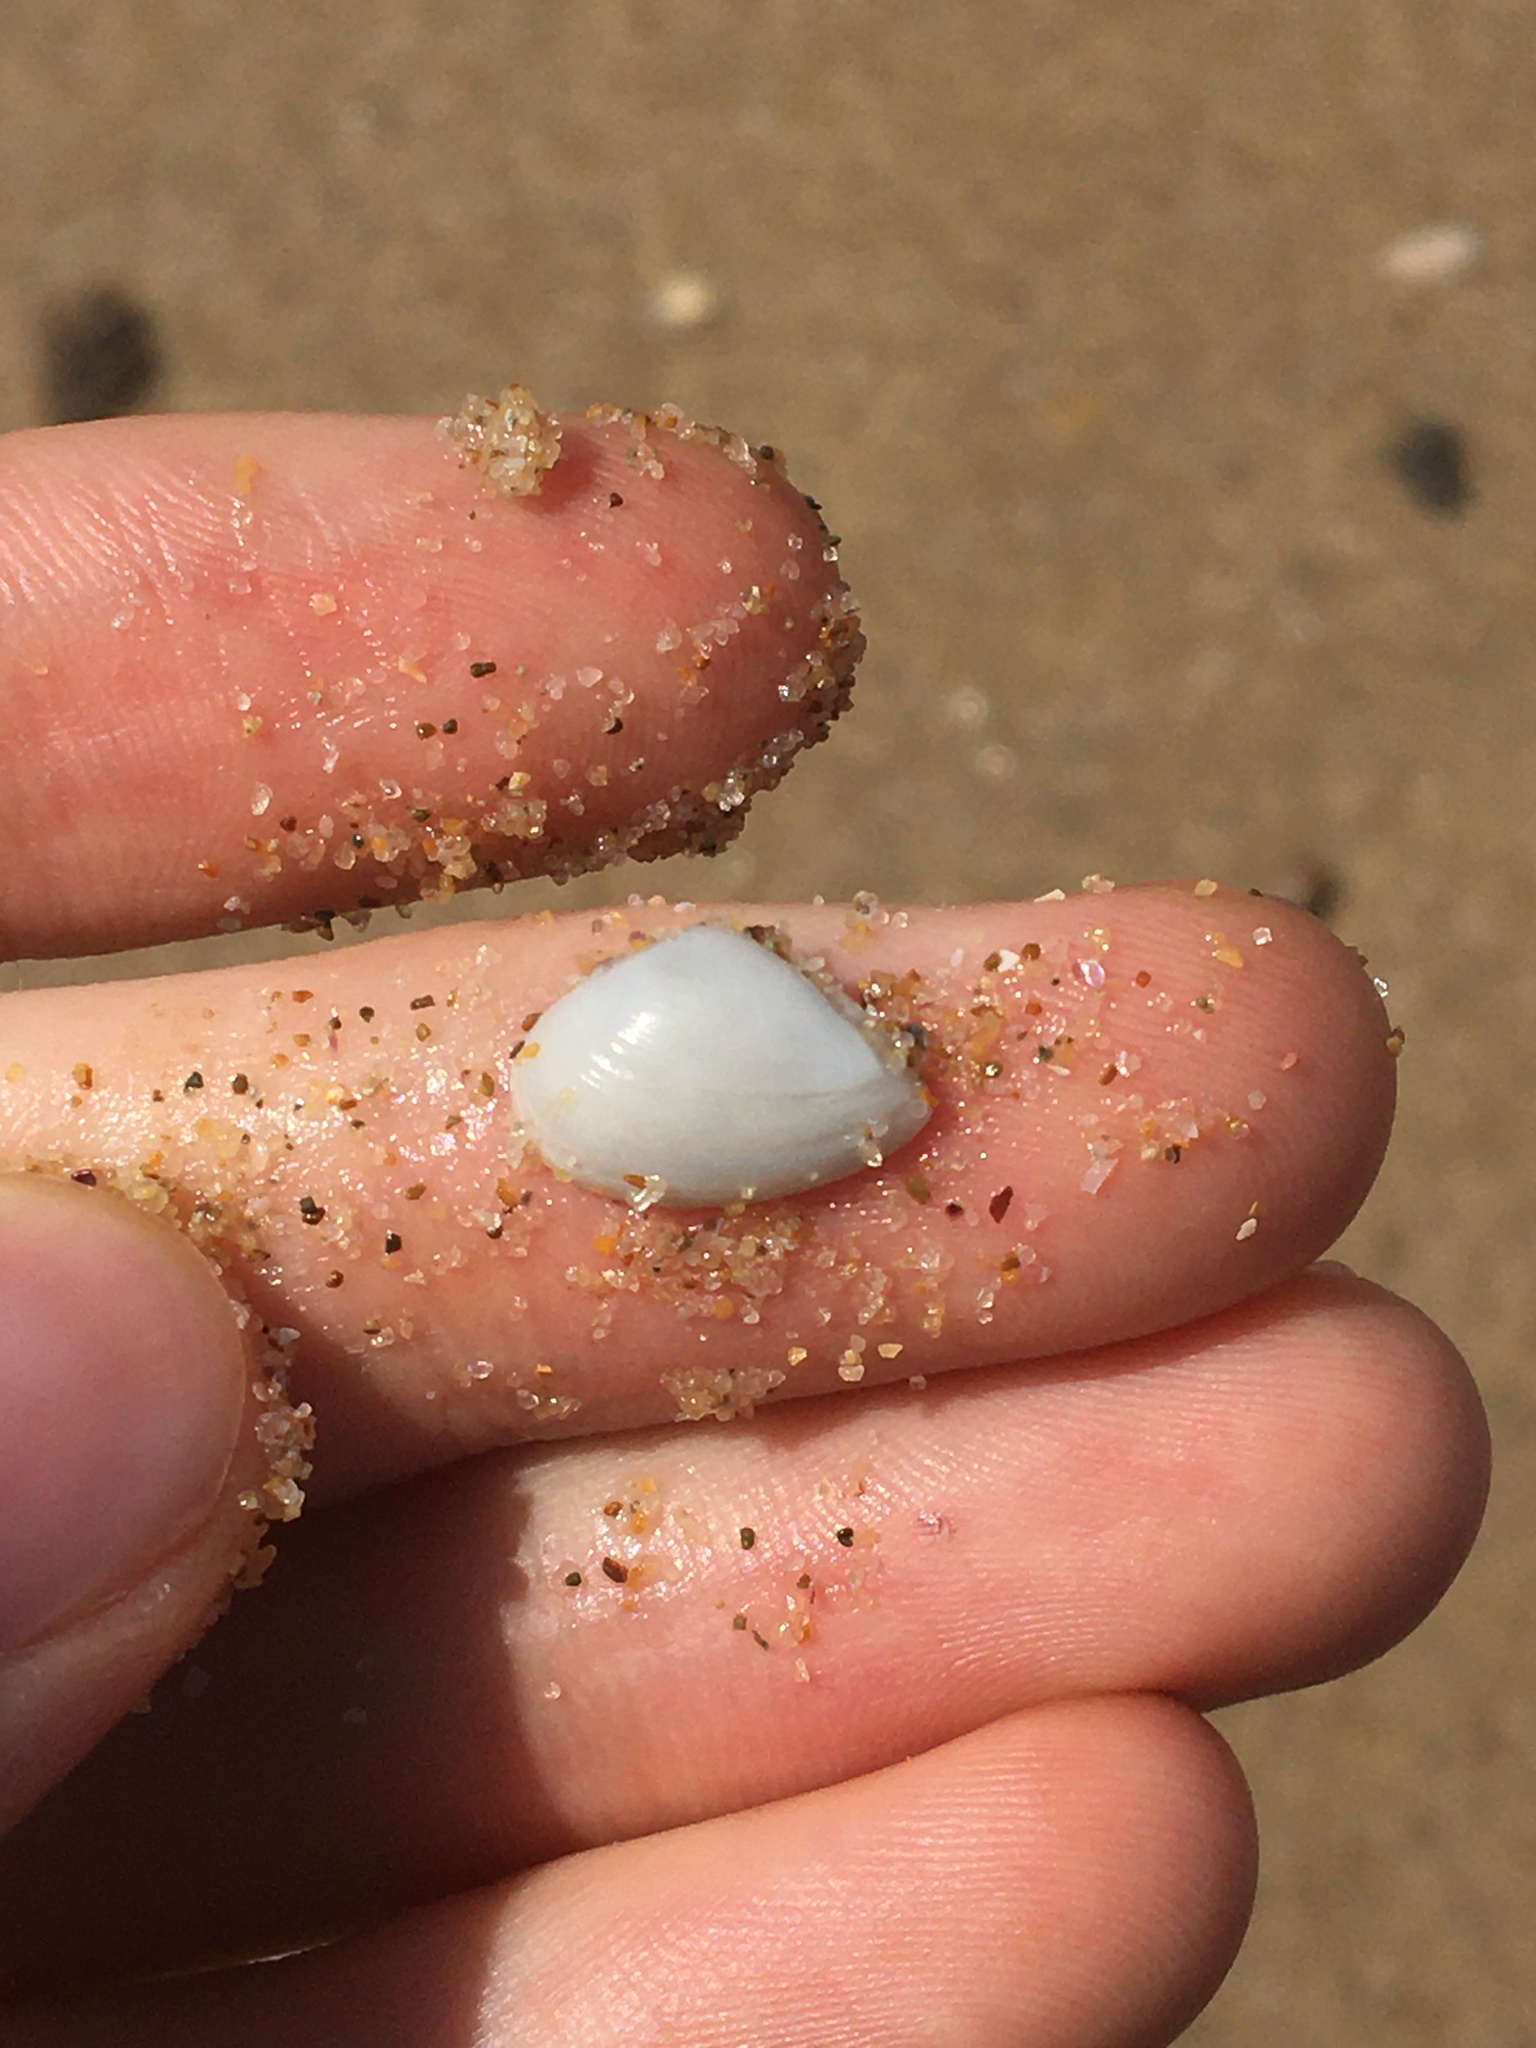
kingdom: Animalia
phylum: Mollusca
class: Bivalvia
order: Myida
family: Corbulidae
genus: Corbula
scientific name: Corbula smithiana
